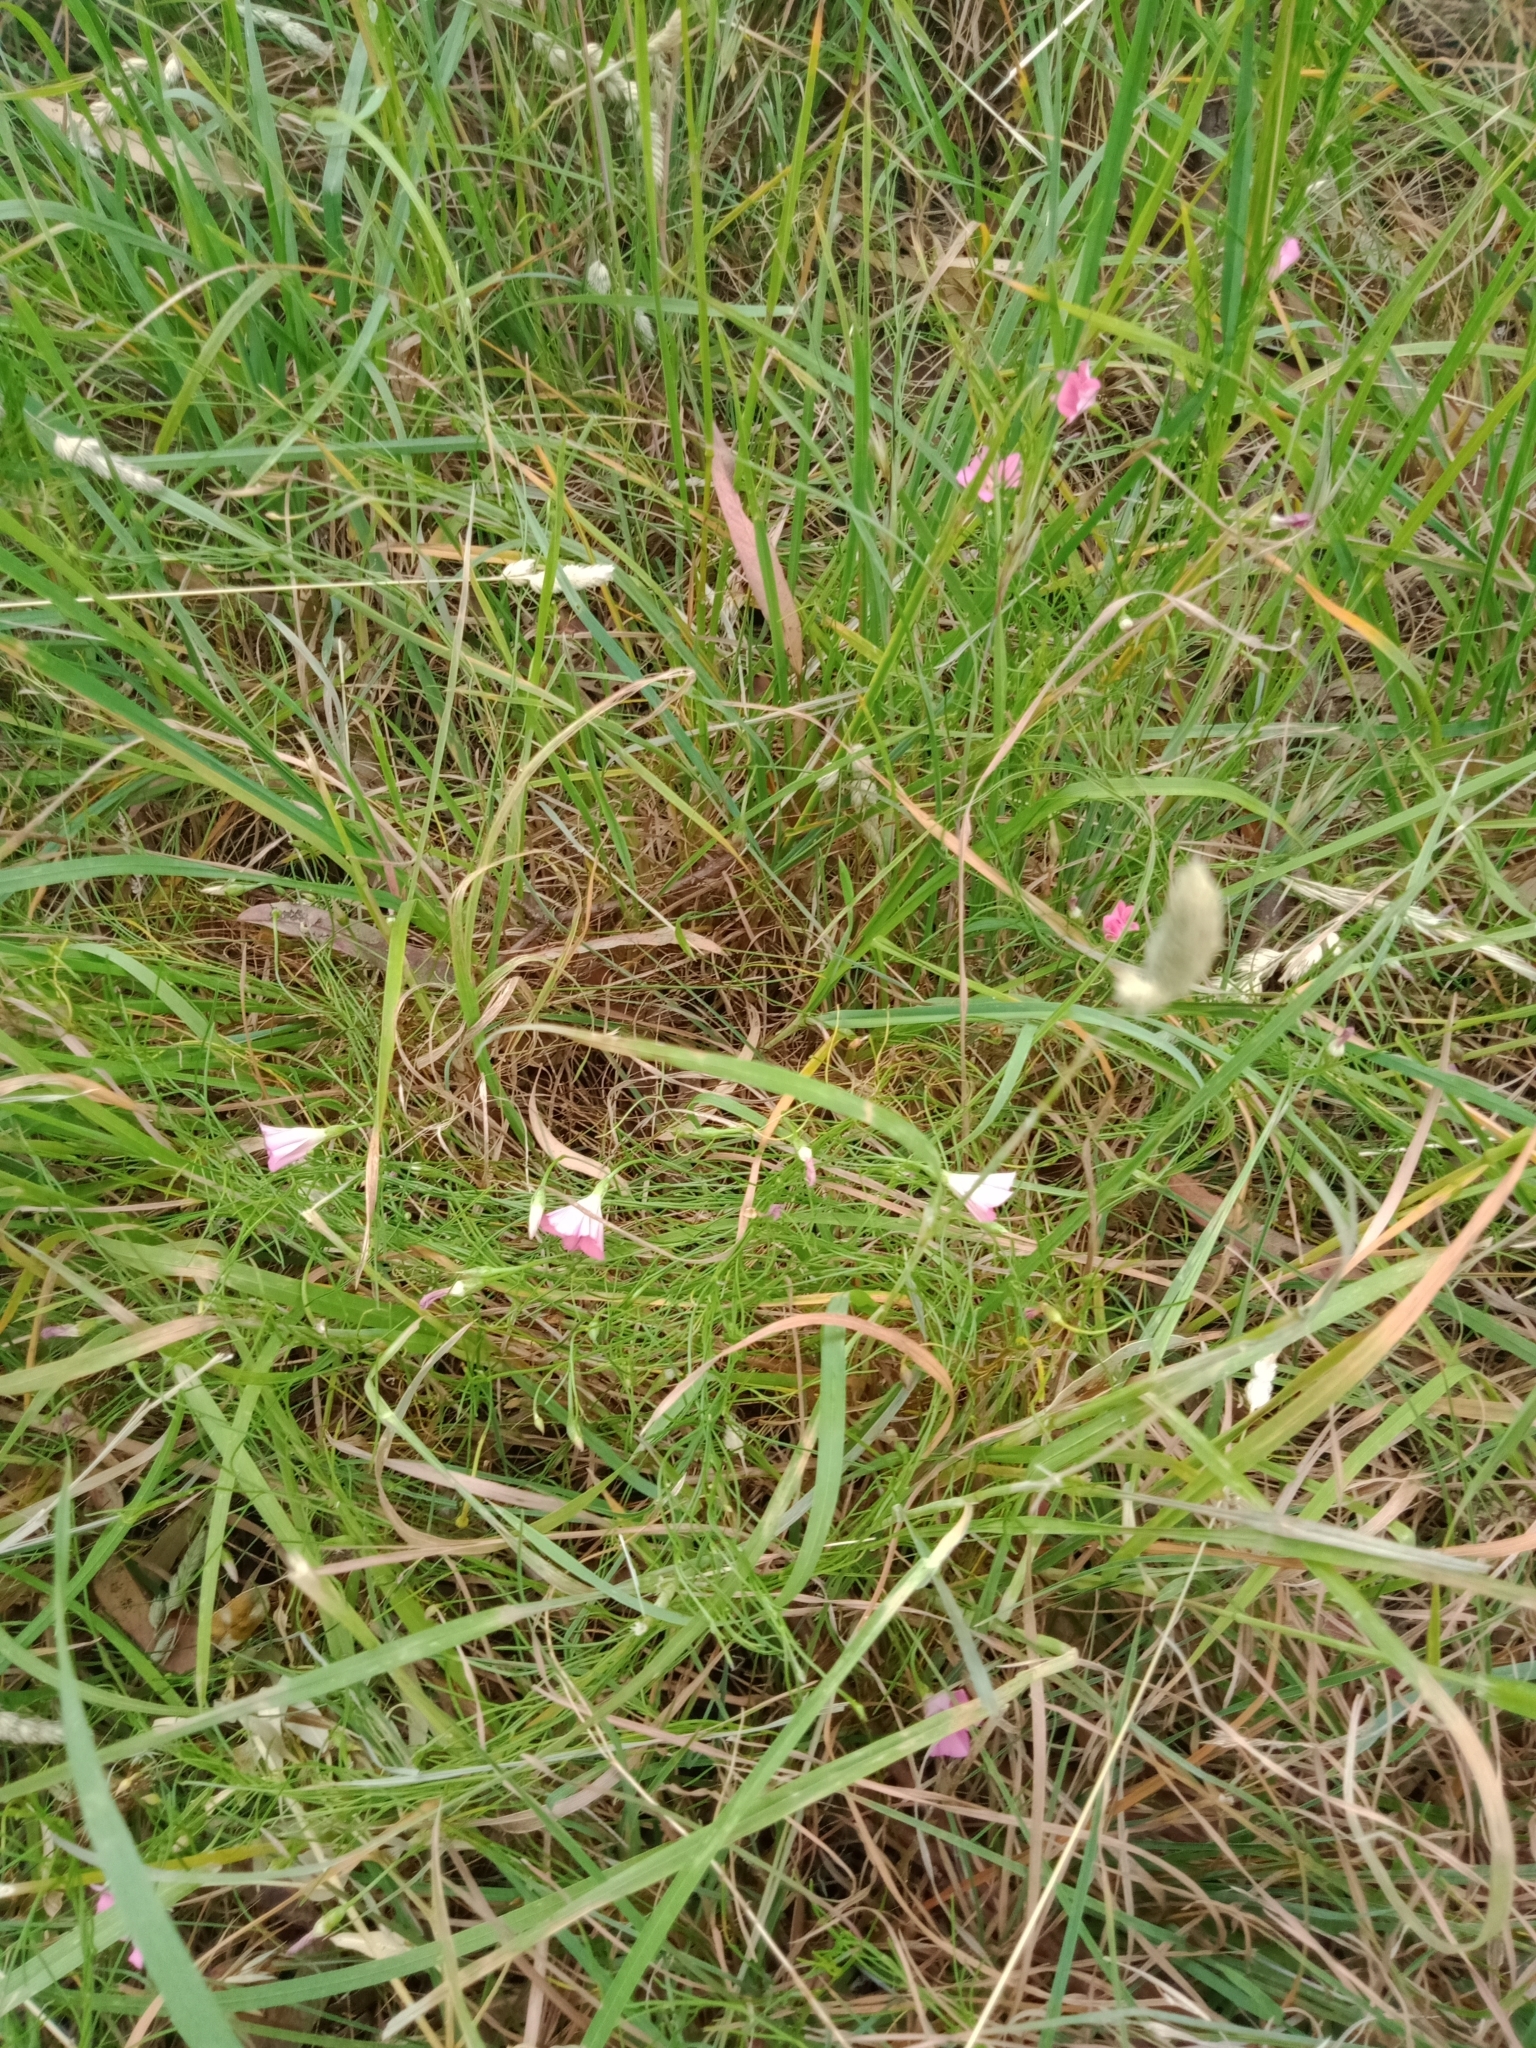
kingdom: Plantae
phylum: Tracheophyta
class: Magnoliopsida
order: Solanales
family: Convolvulaceae
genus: Convolvulus
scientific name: Convolvulus angustissimus
